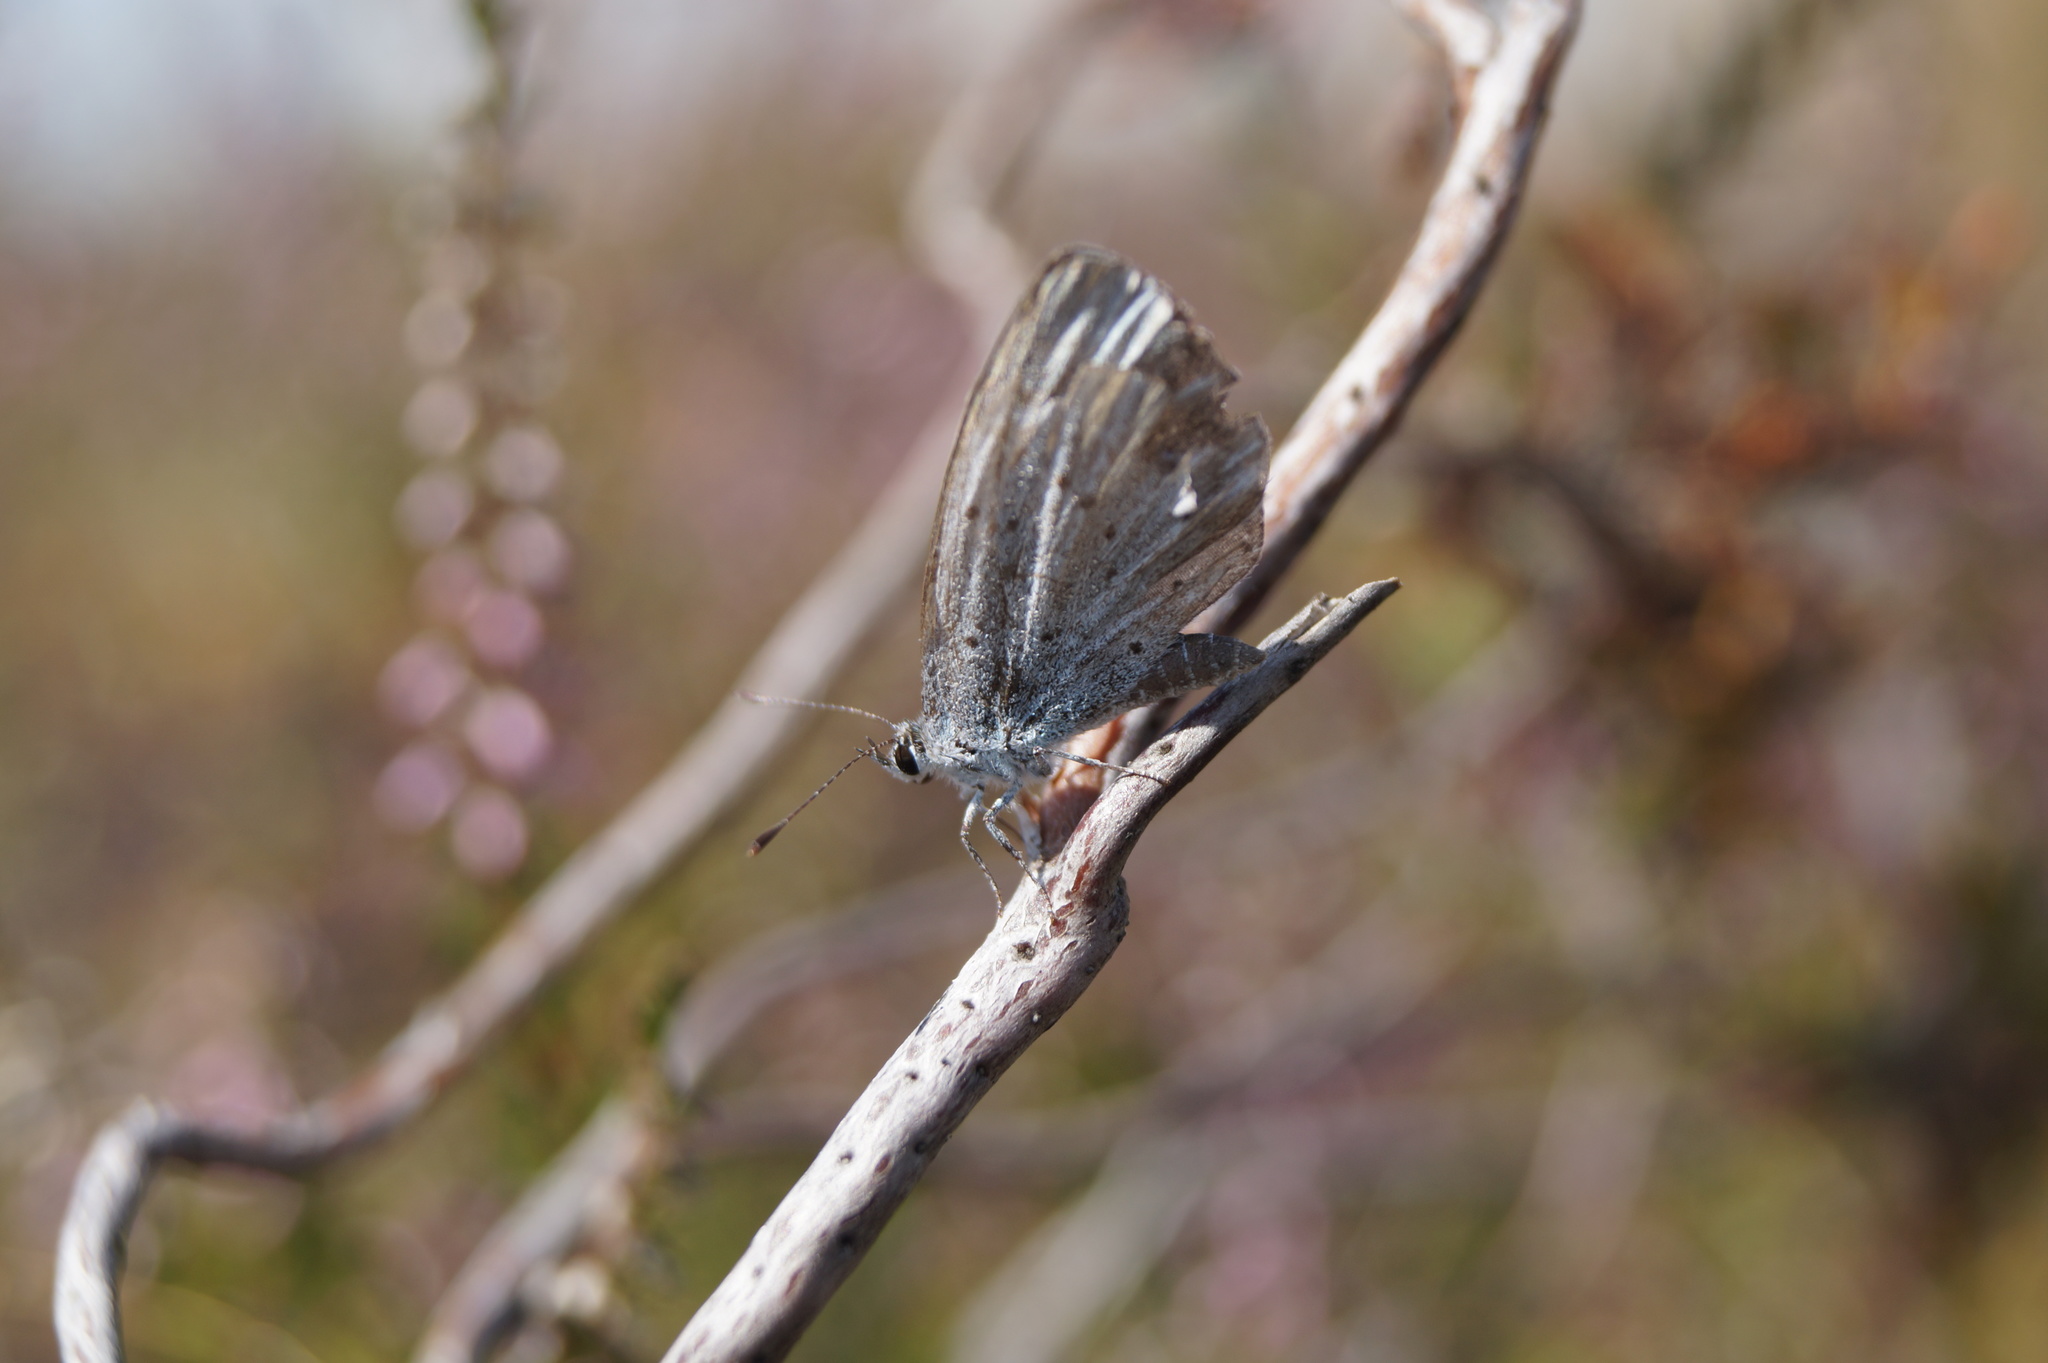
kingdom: Animalia
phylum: Arthropoda
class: Insecta
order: Lepidoptera
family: Lycaenidae
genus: Celastrina
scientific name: Celastrina argiolus
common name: Holly blue
